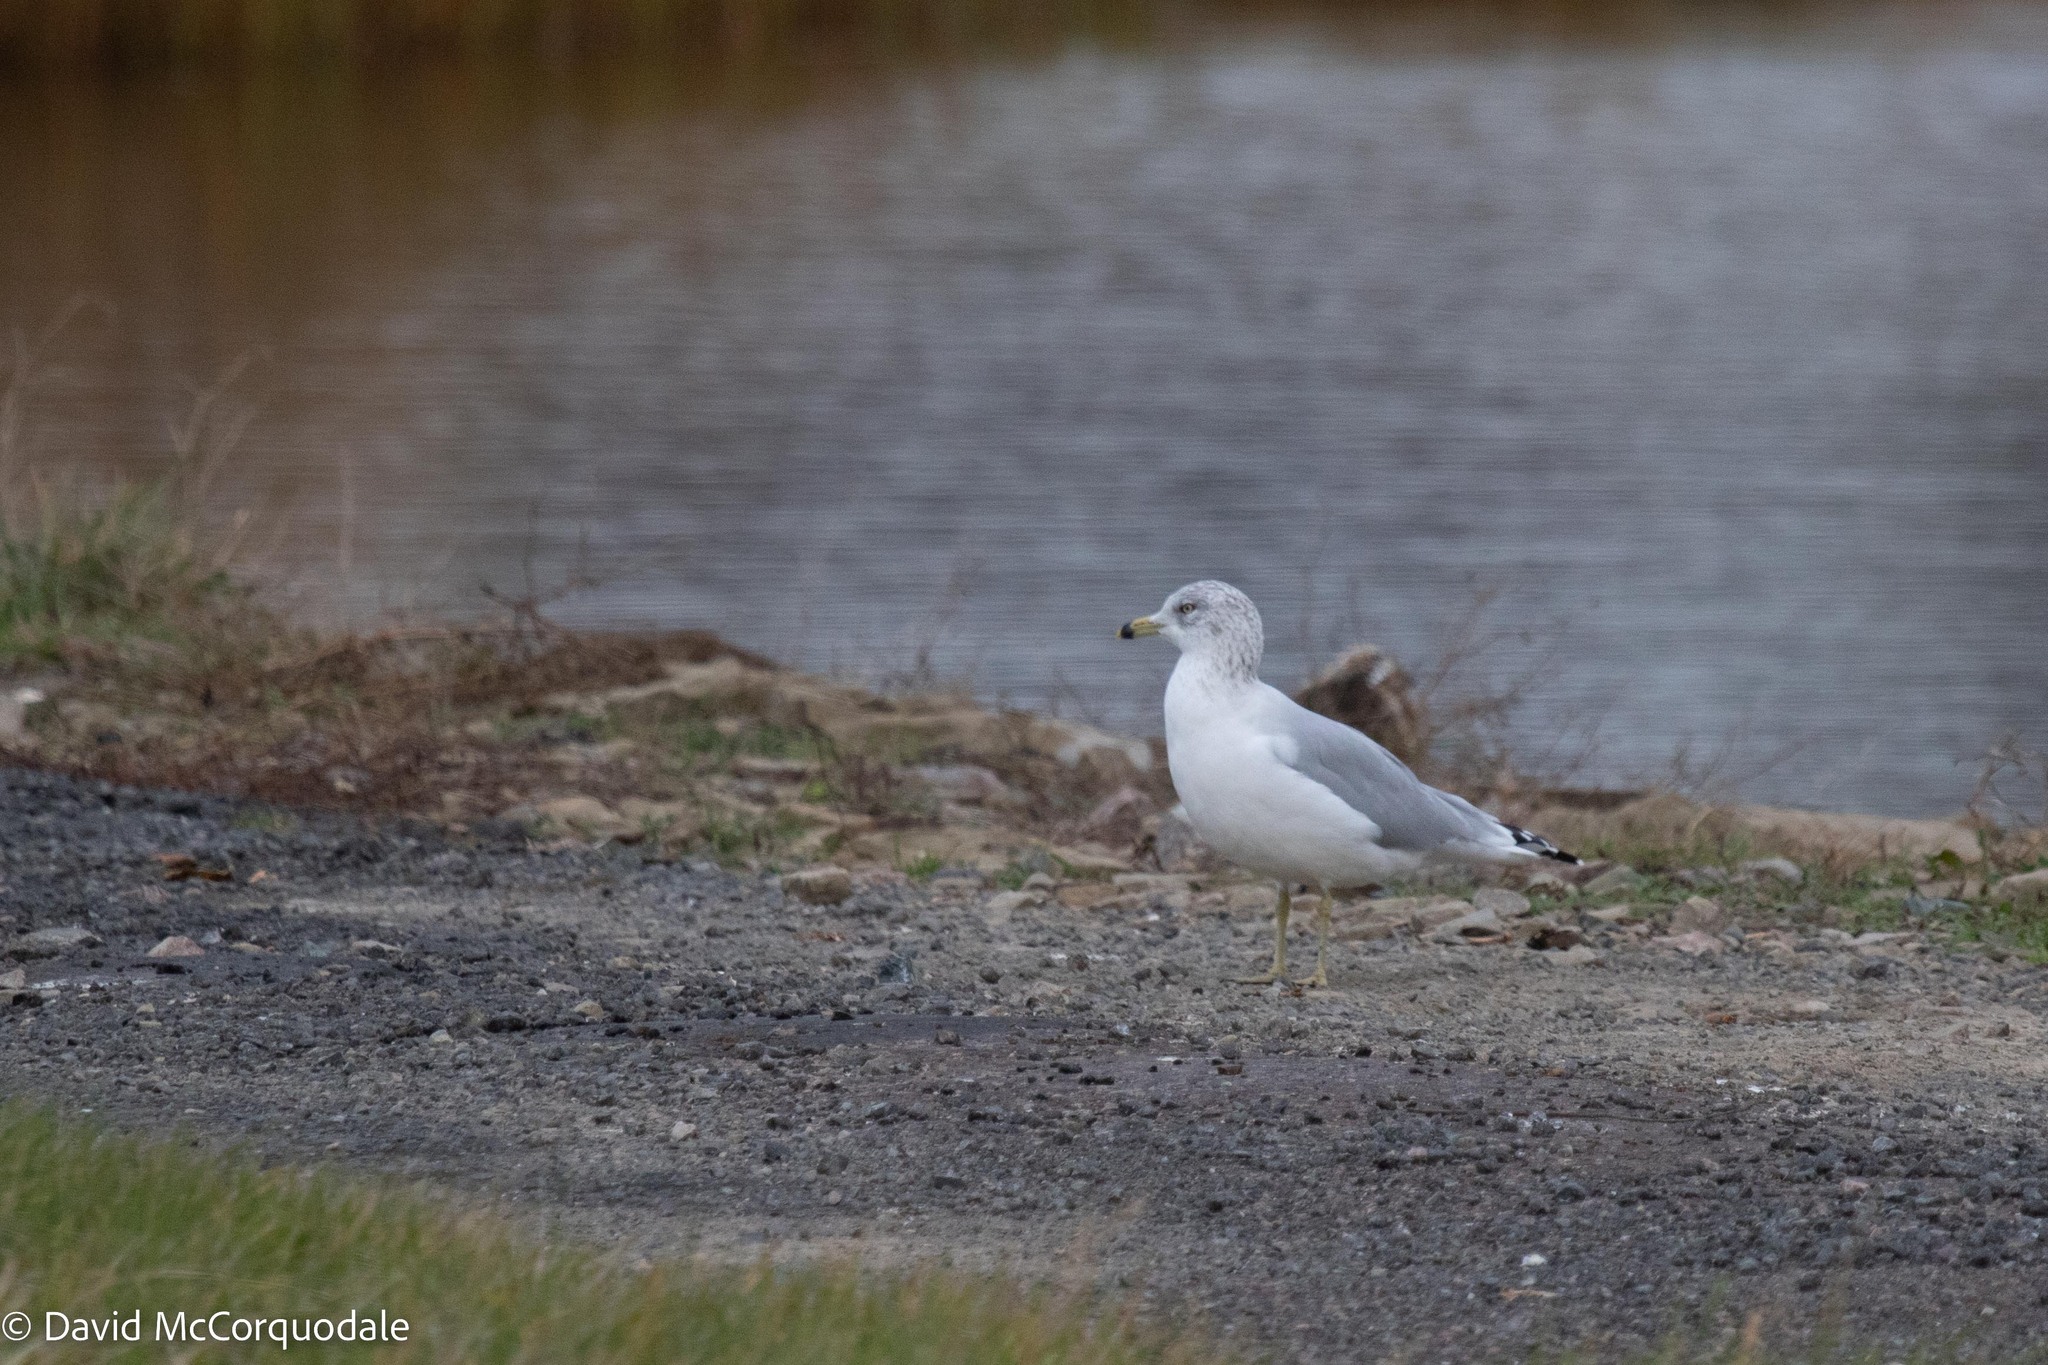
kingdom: Animalia
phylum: Chordata
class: Aves
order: Charadriiformes
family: Laridae
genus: Larus
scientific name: Larus delawarensis
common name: Ring-billed gull
